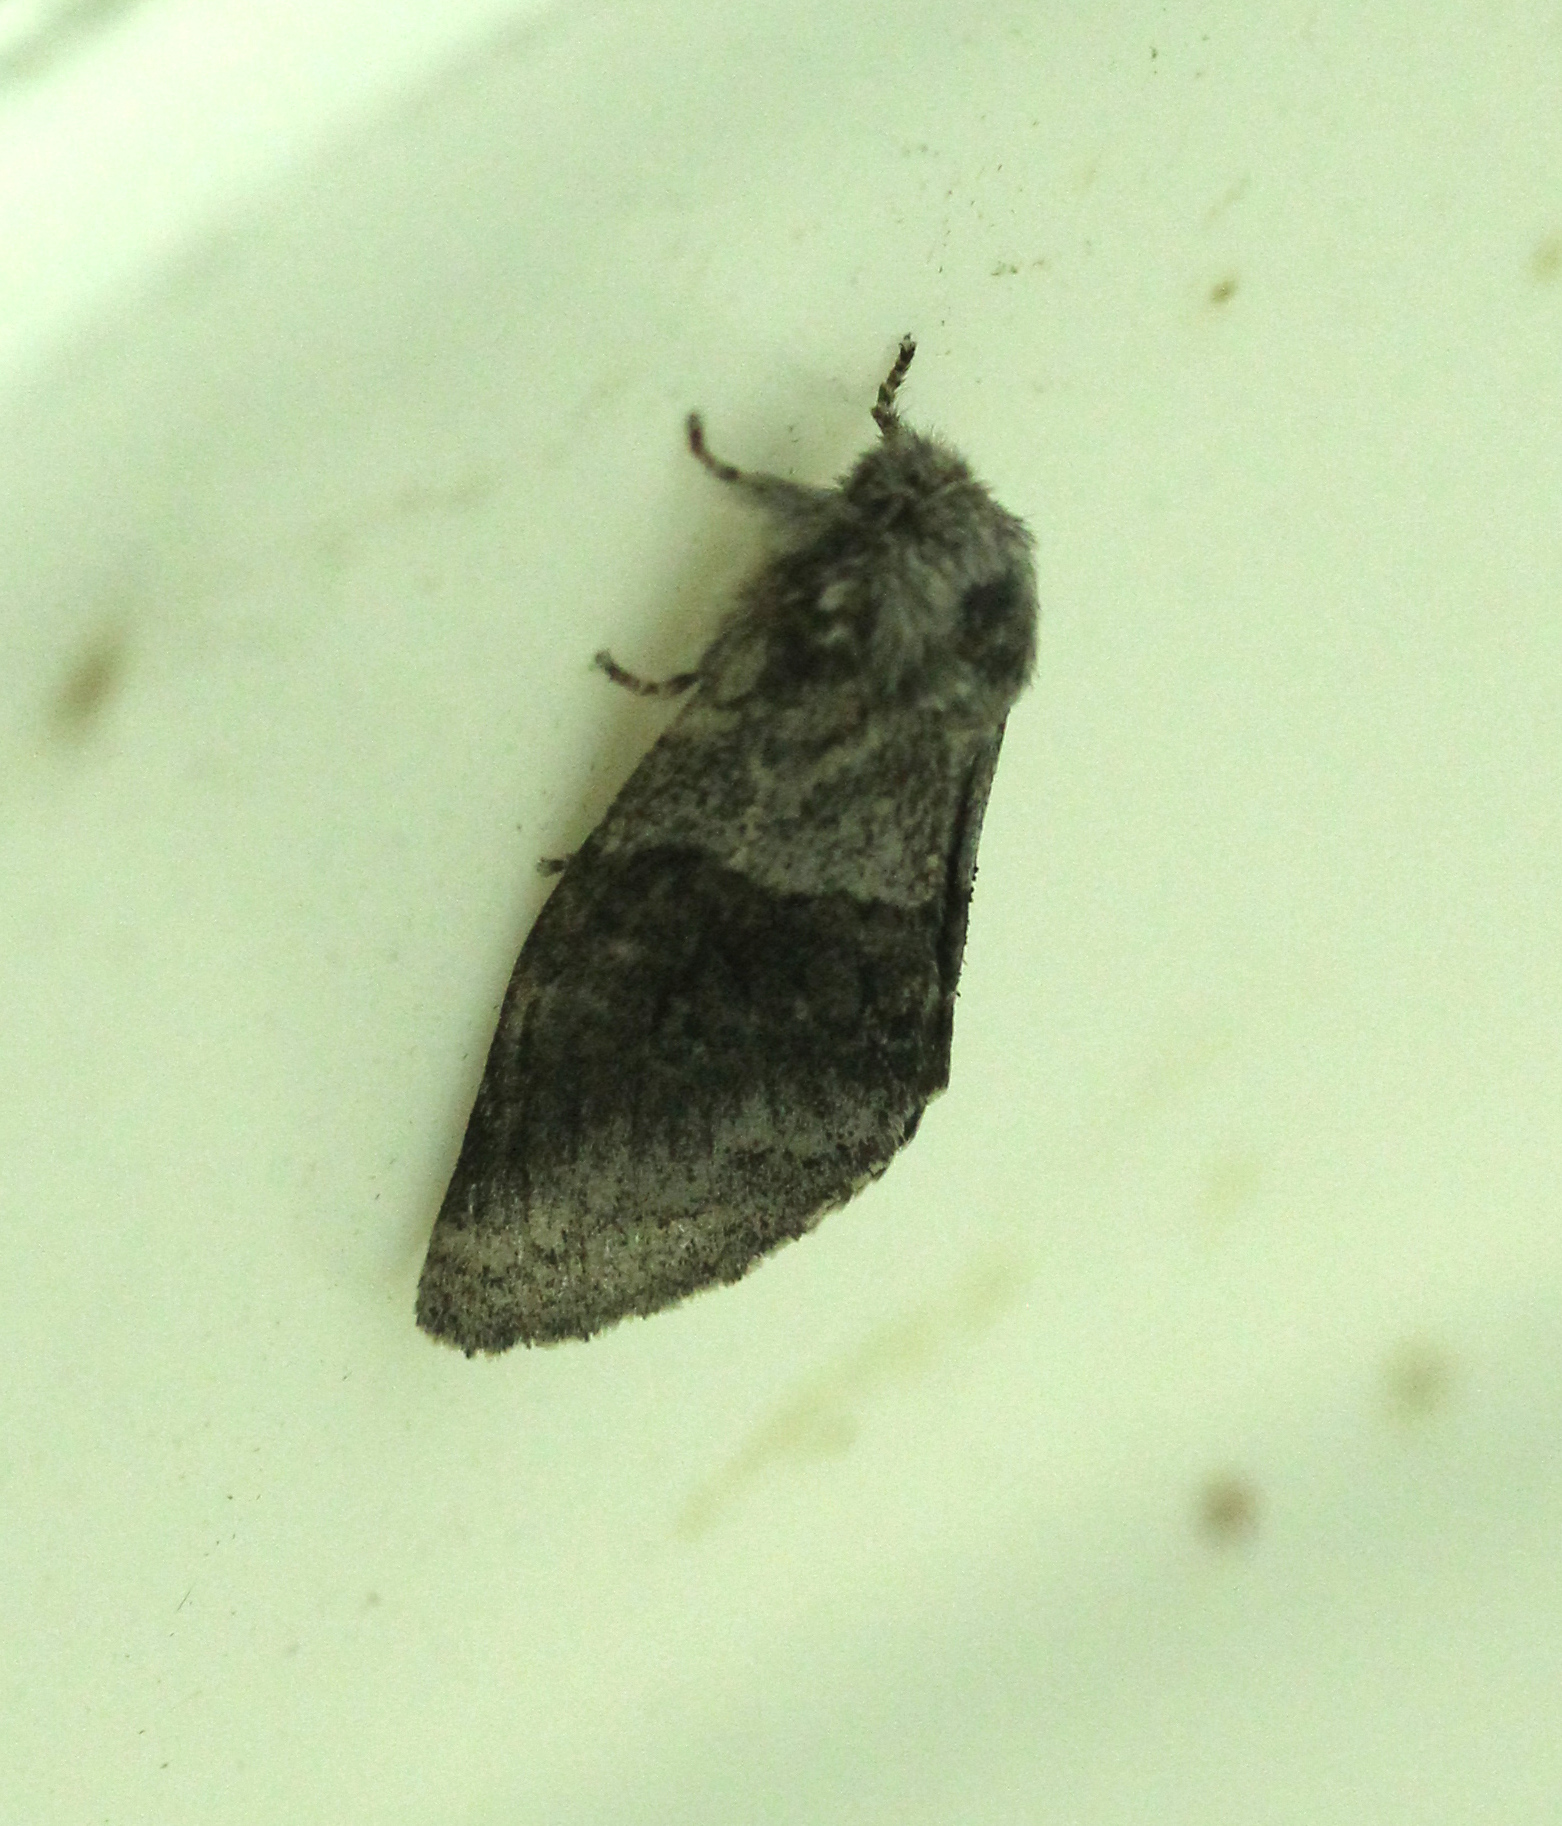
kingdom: Animalia
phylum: Arthropoda
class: Insecta
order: Lepidoptera
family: Notodontidae
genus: Gluphisia
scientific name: Gluphisia septentrionis
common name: Common gluphisia
